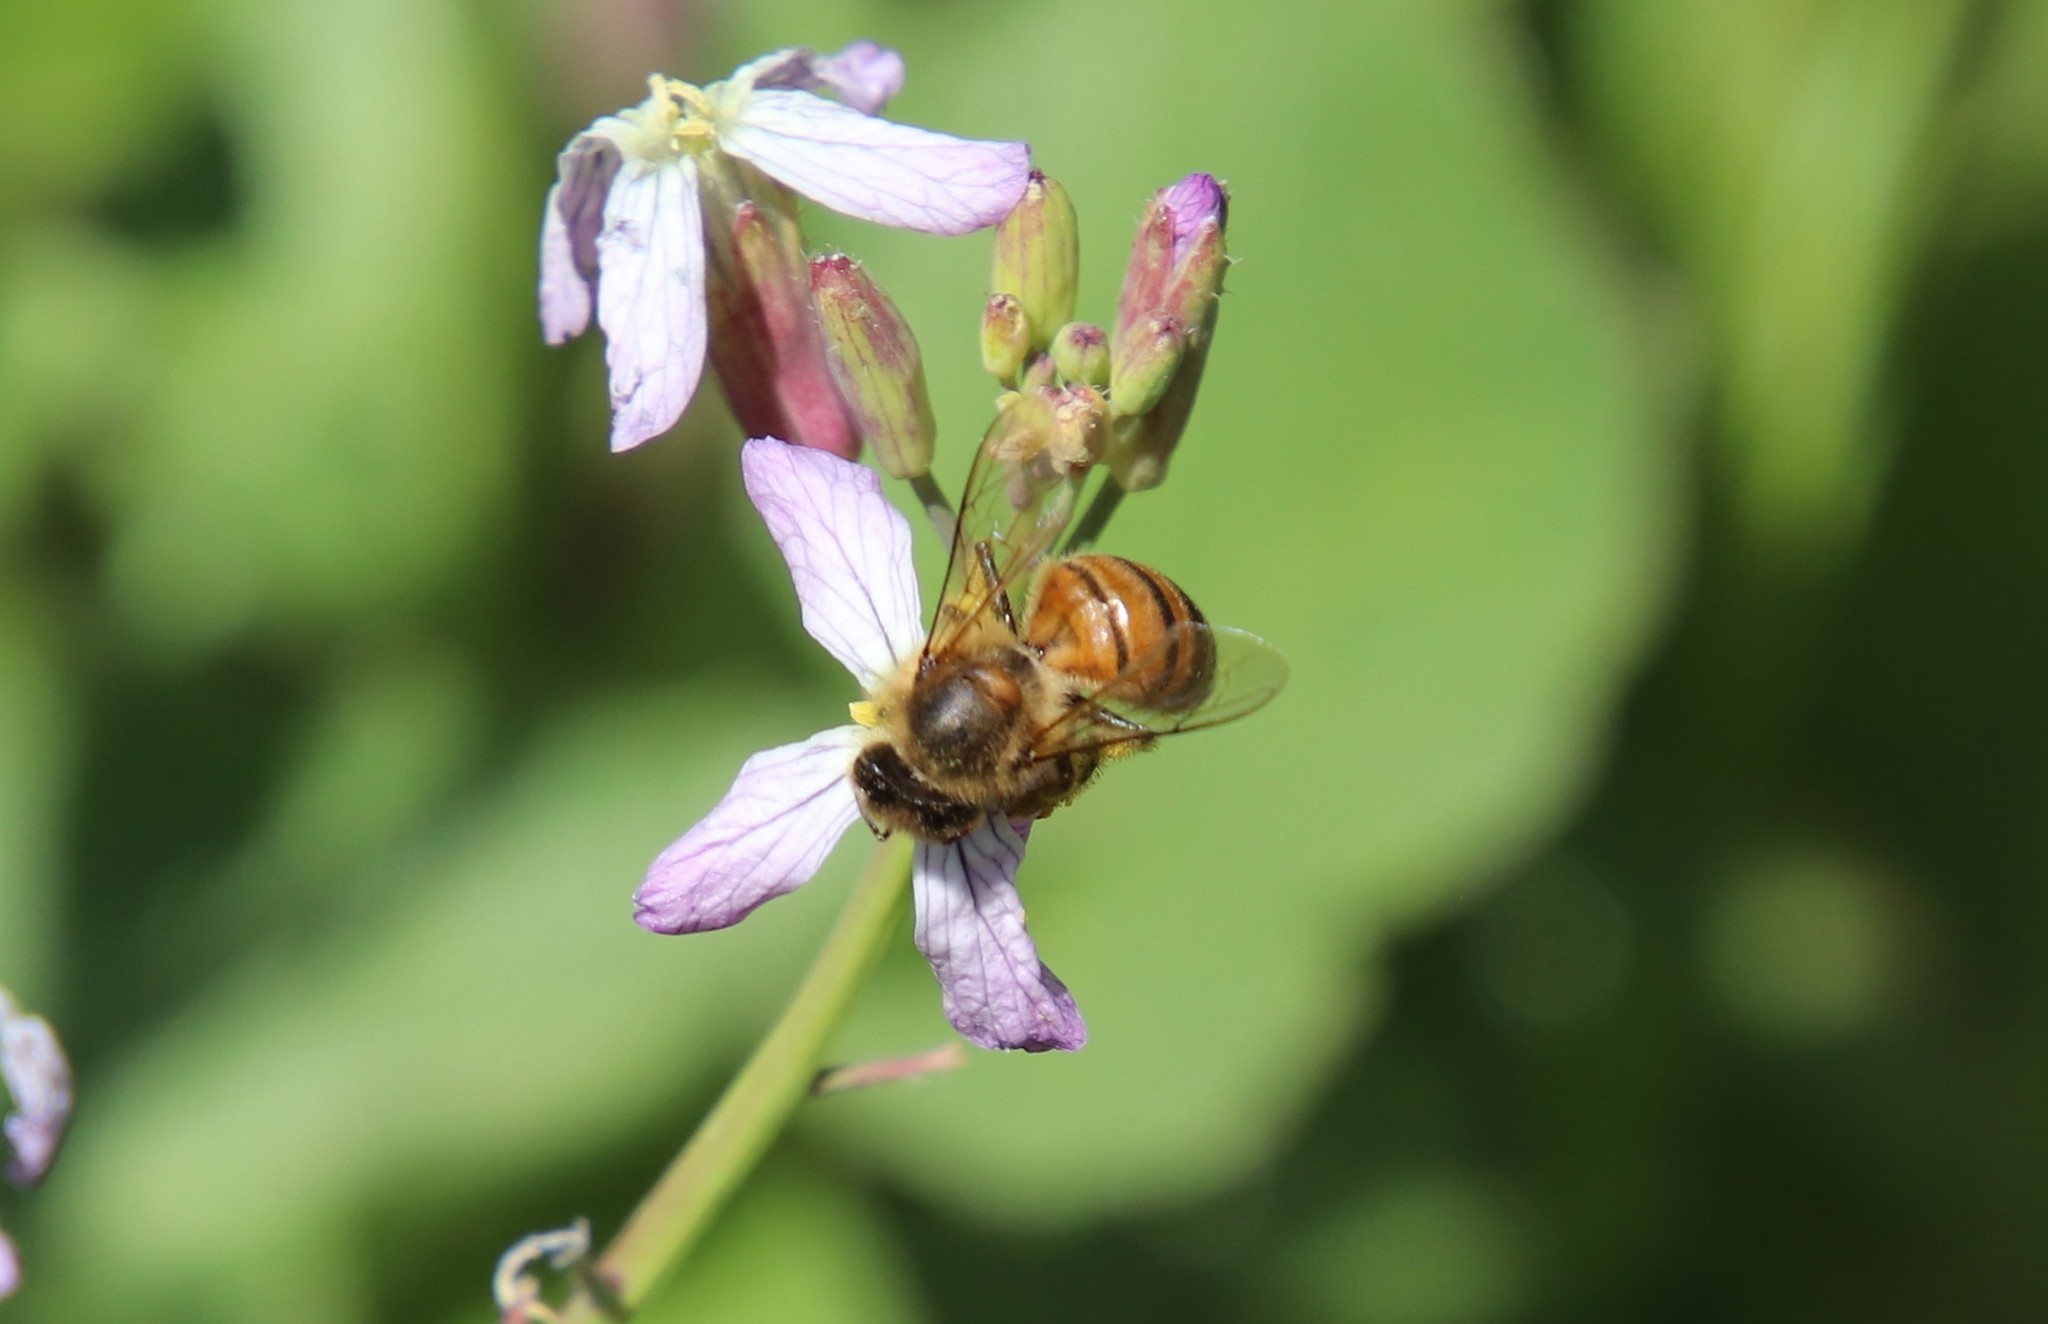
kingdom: Animalia
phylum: Arthropoda
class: Insecta
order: Hymenoptera
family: Apidae
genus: Apis
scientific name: Apis mellifera
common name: Honey bee
